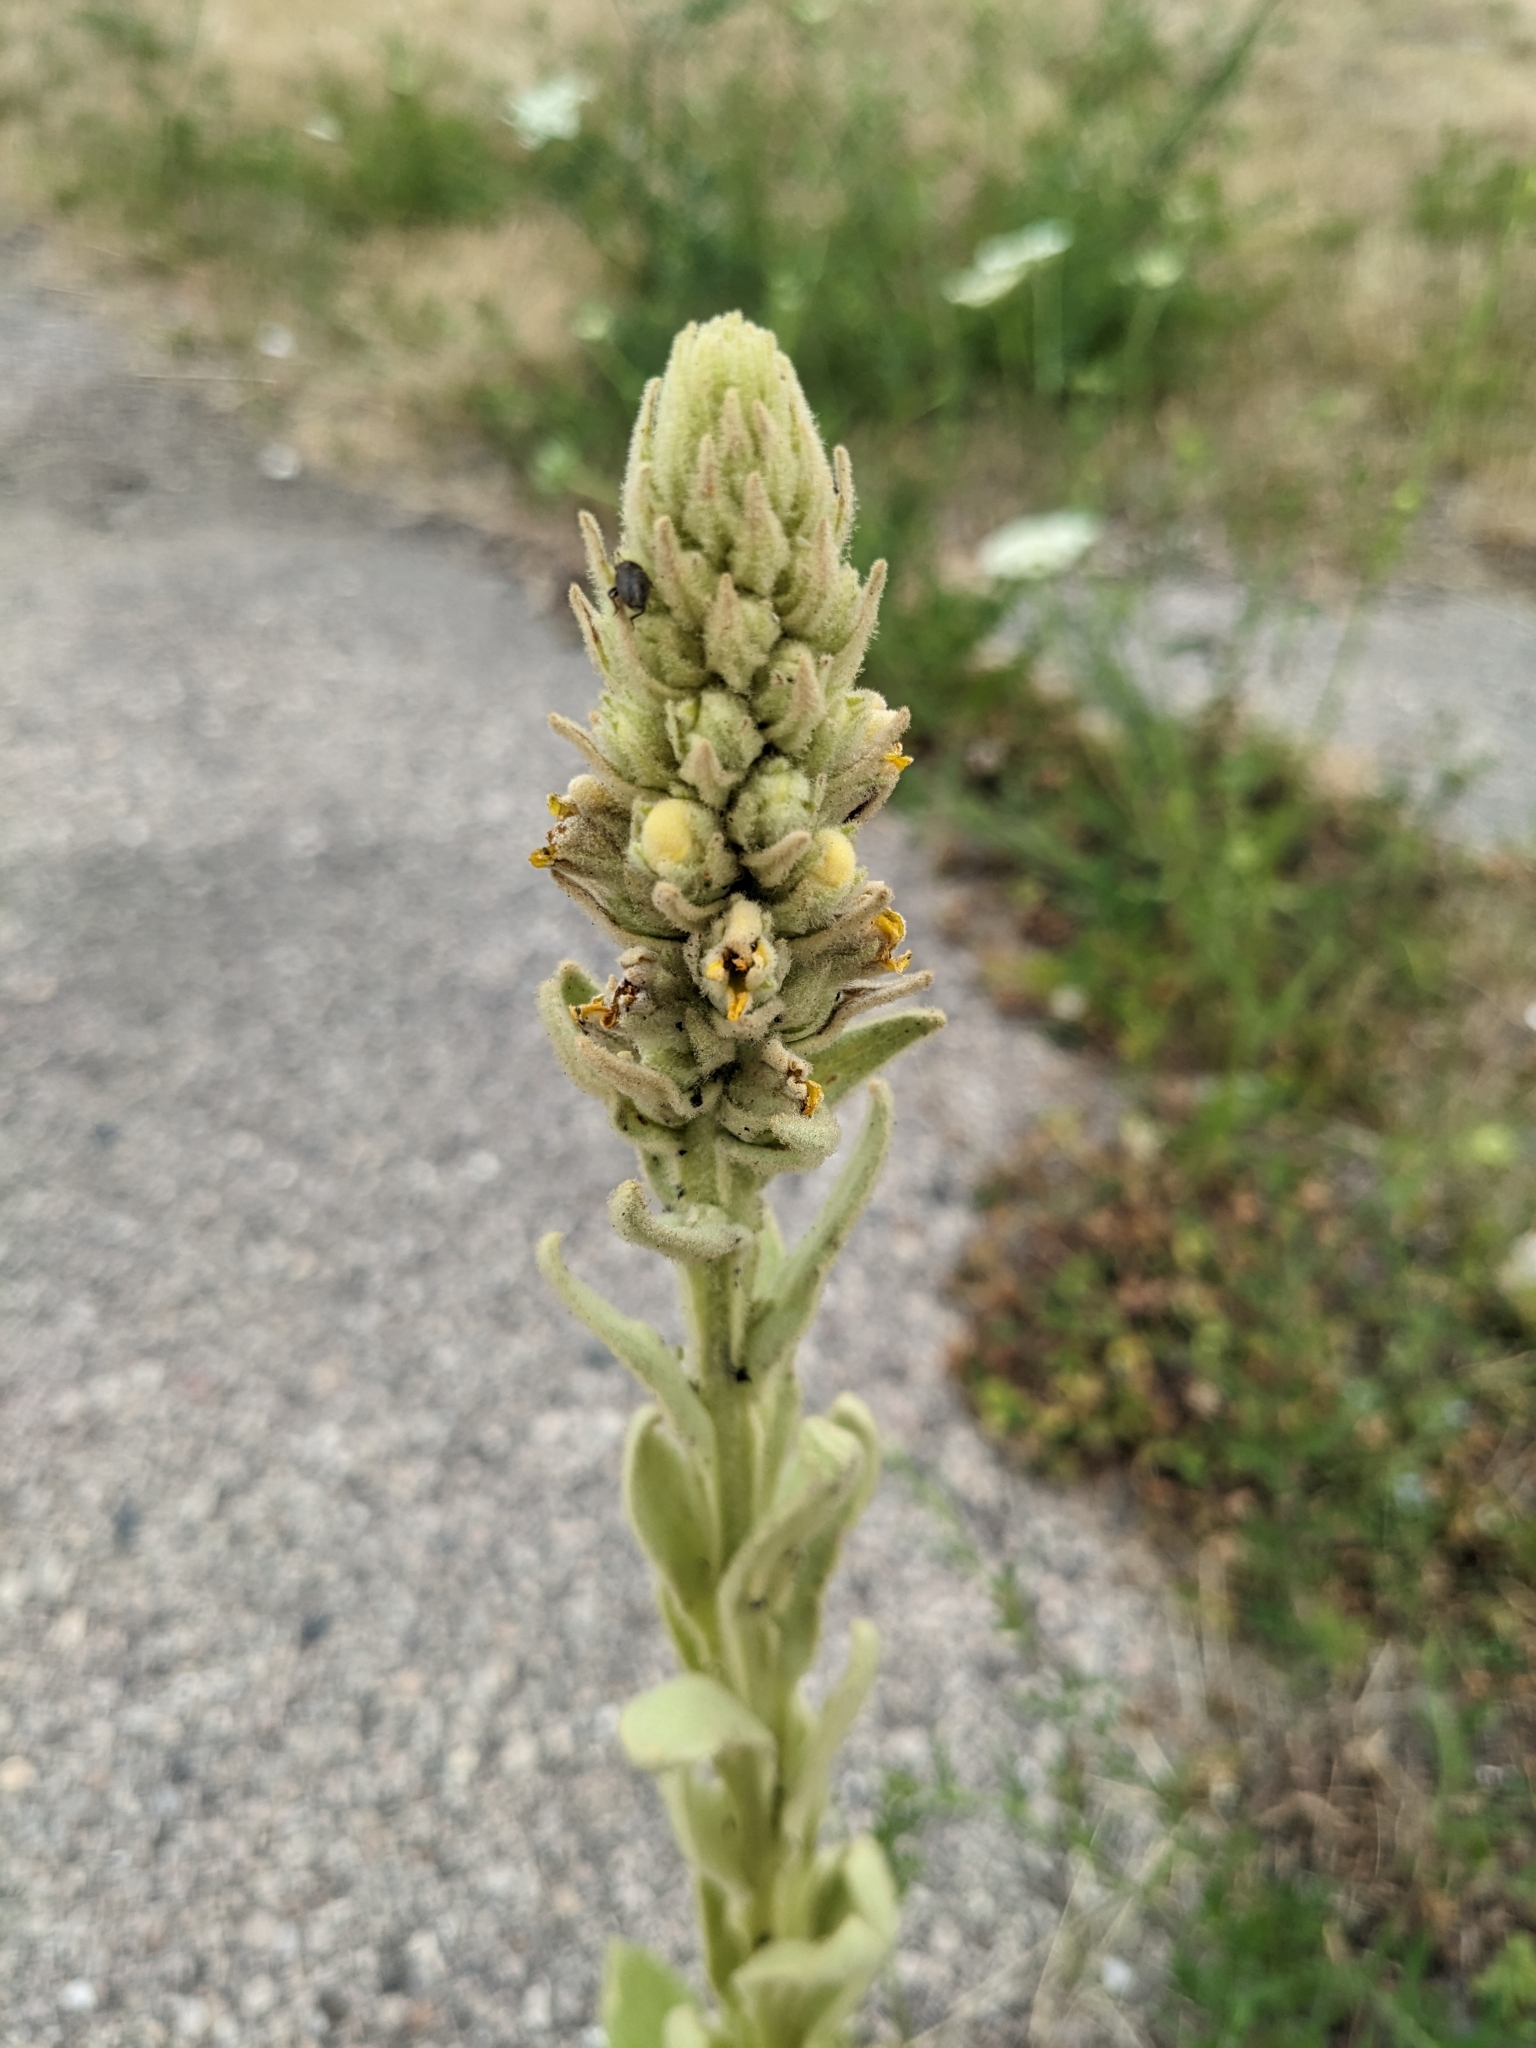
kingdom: Plantae
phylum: Tracheophyta
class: Magnoliopsida
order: Lamiales
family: Scrophulariaceae
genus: Verbascum
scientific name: Verbascum thapsus
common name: Common mullein
